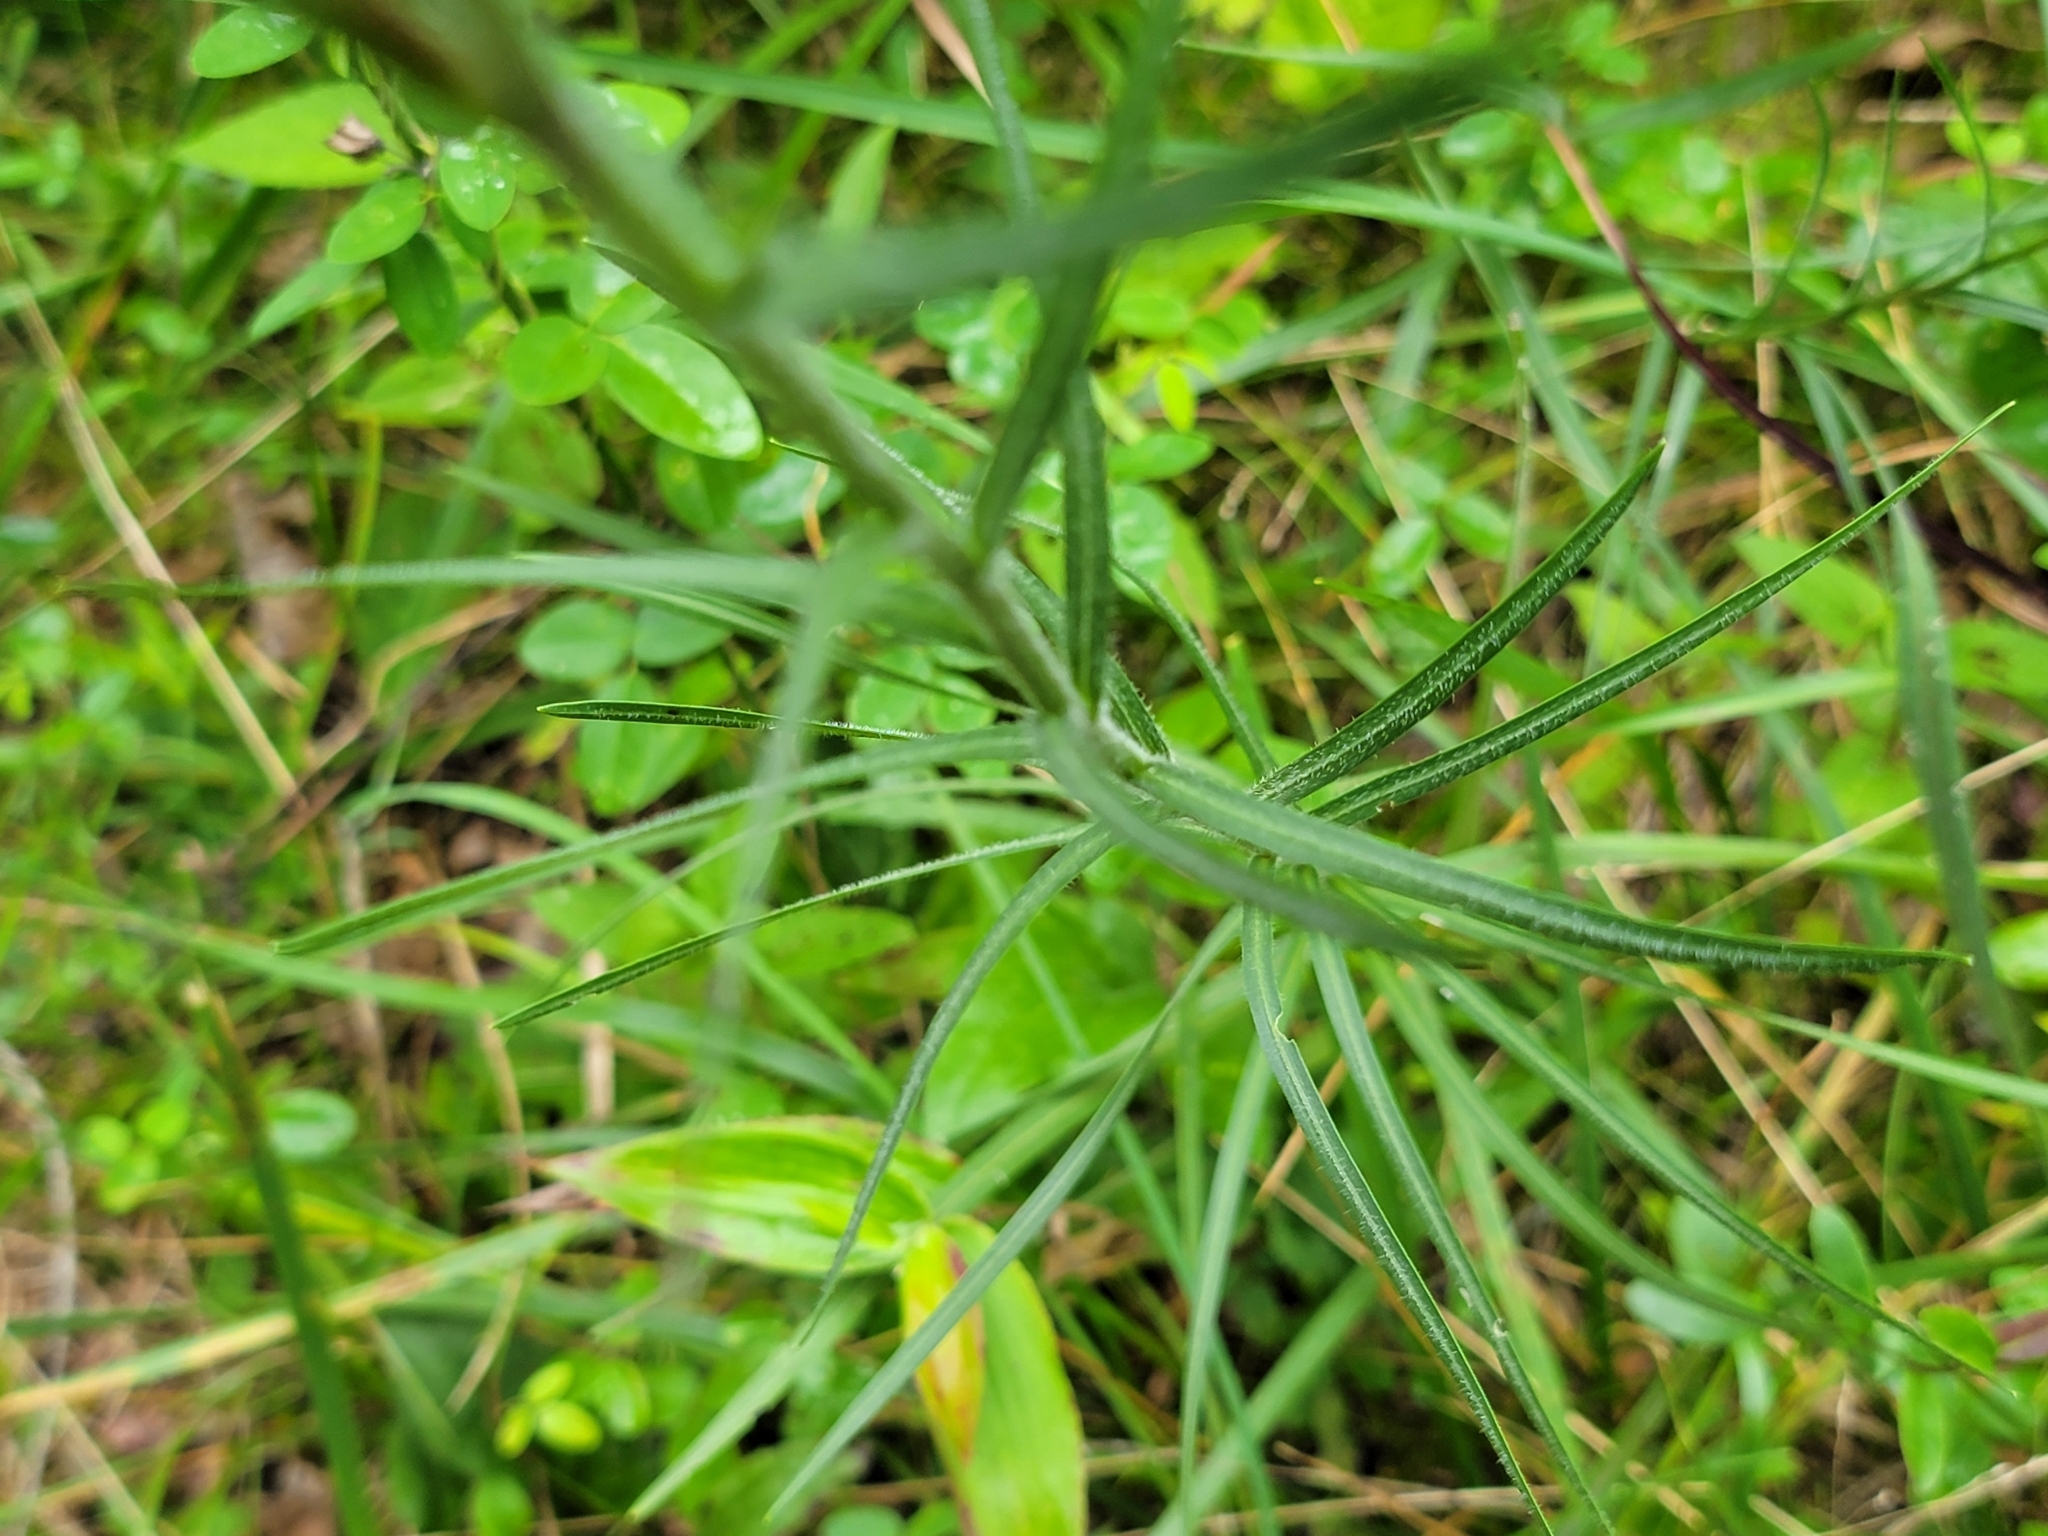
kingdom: Plantae
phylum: Tracheophyta
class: Magnoliopsida
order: Asterales
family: Asteraceae
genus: Liatris
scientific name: Liatris squarrosa
